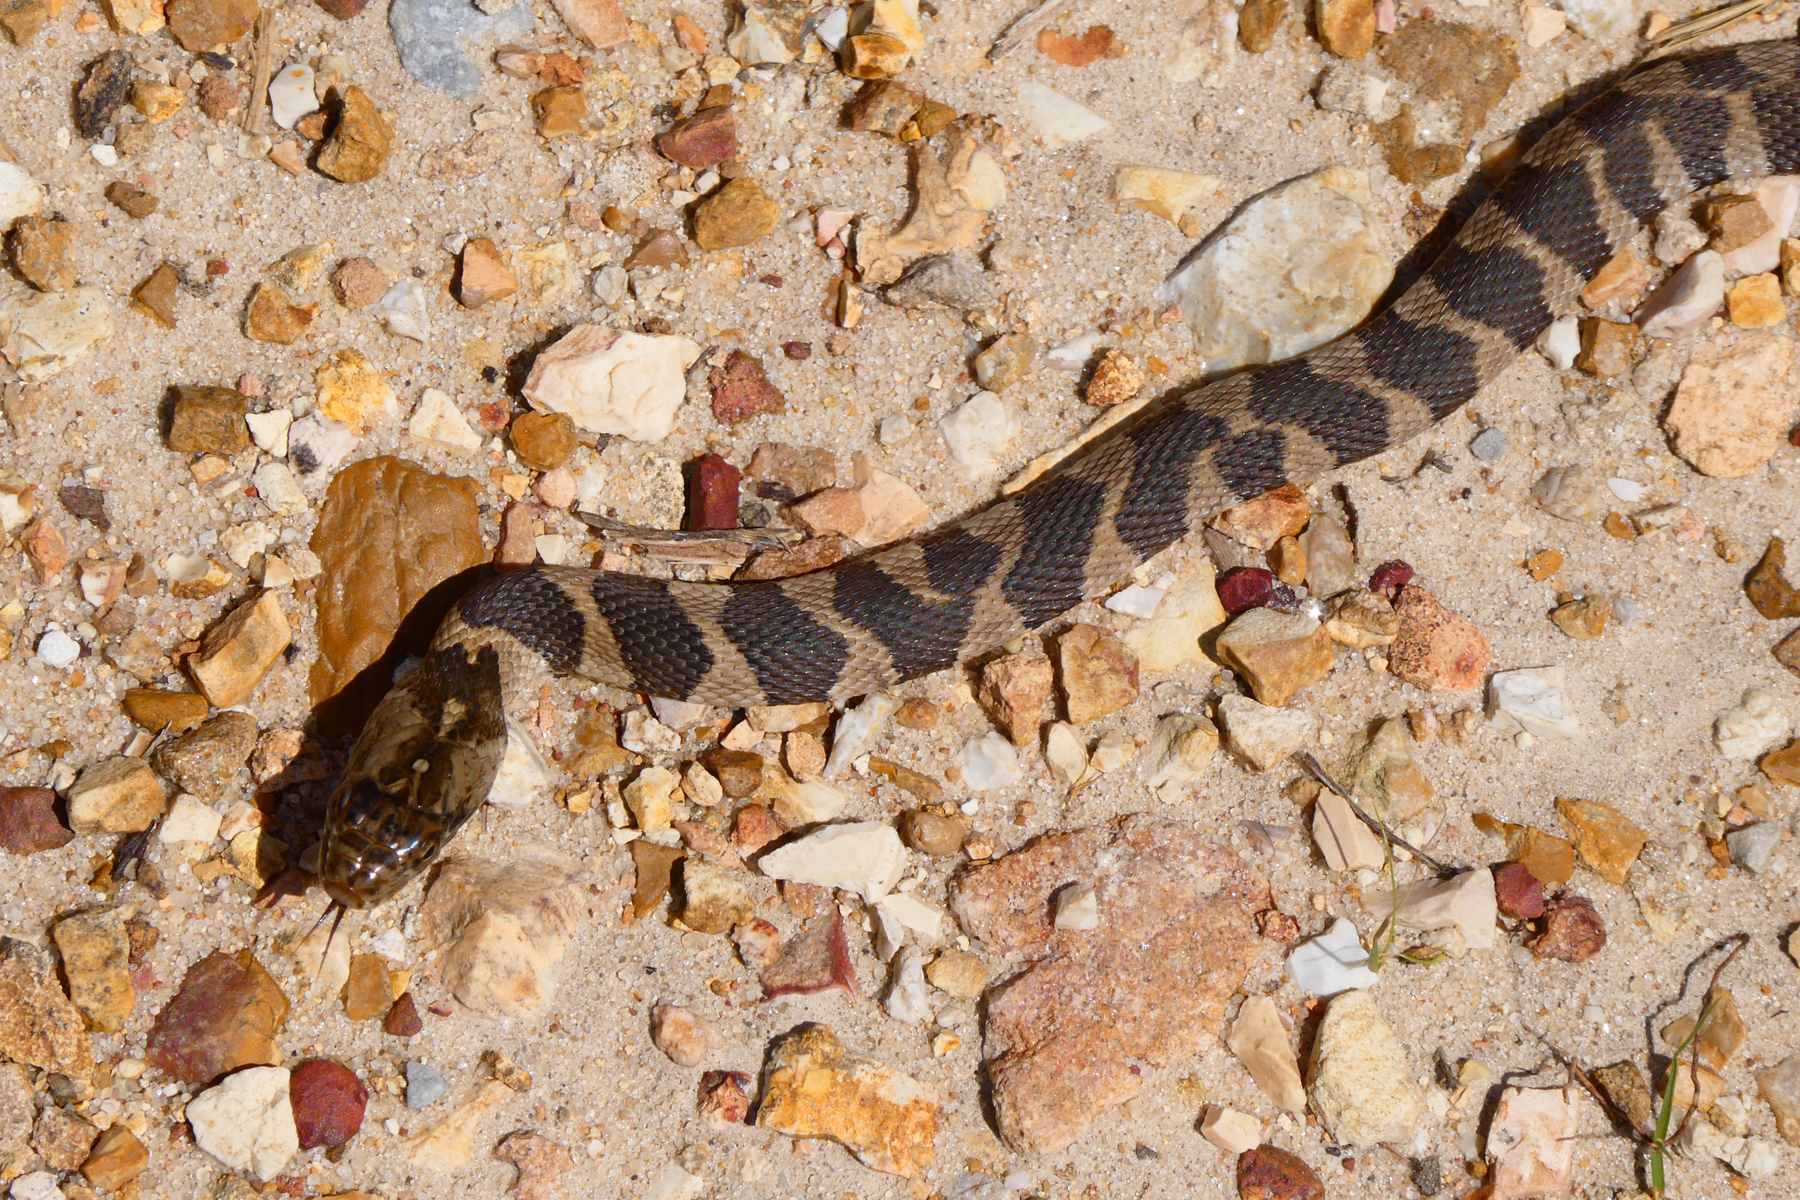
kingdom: Animalia
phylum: Chordata
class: Squamata
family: Colubridae
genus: Nerodia
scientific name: Nerodia sipedon
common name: Northern water snake
